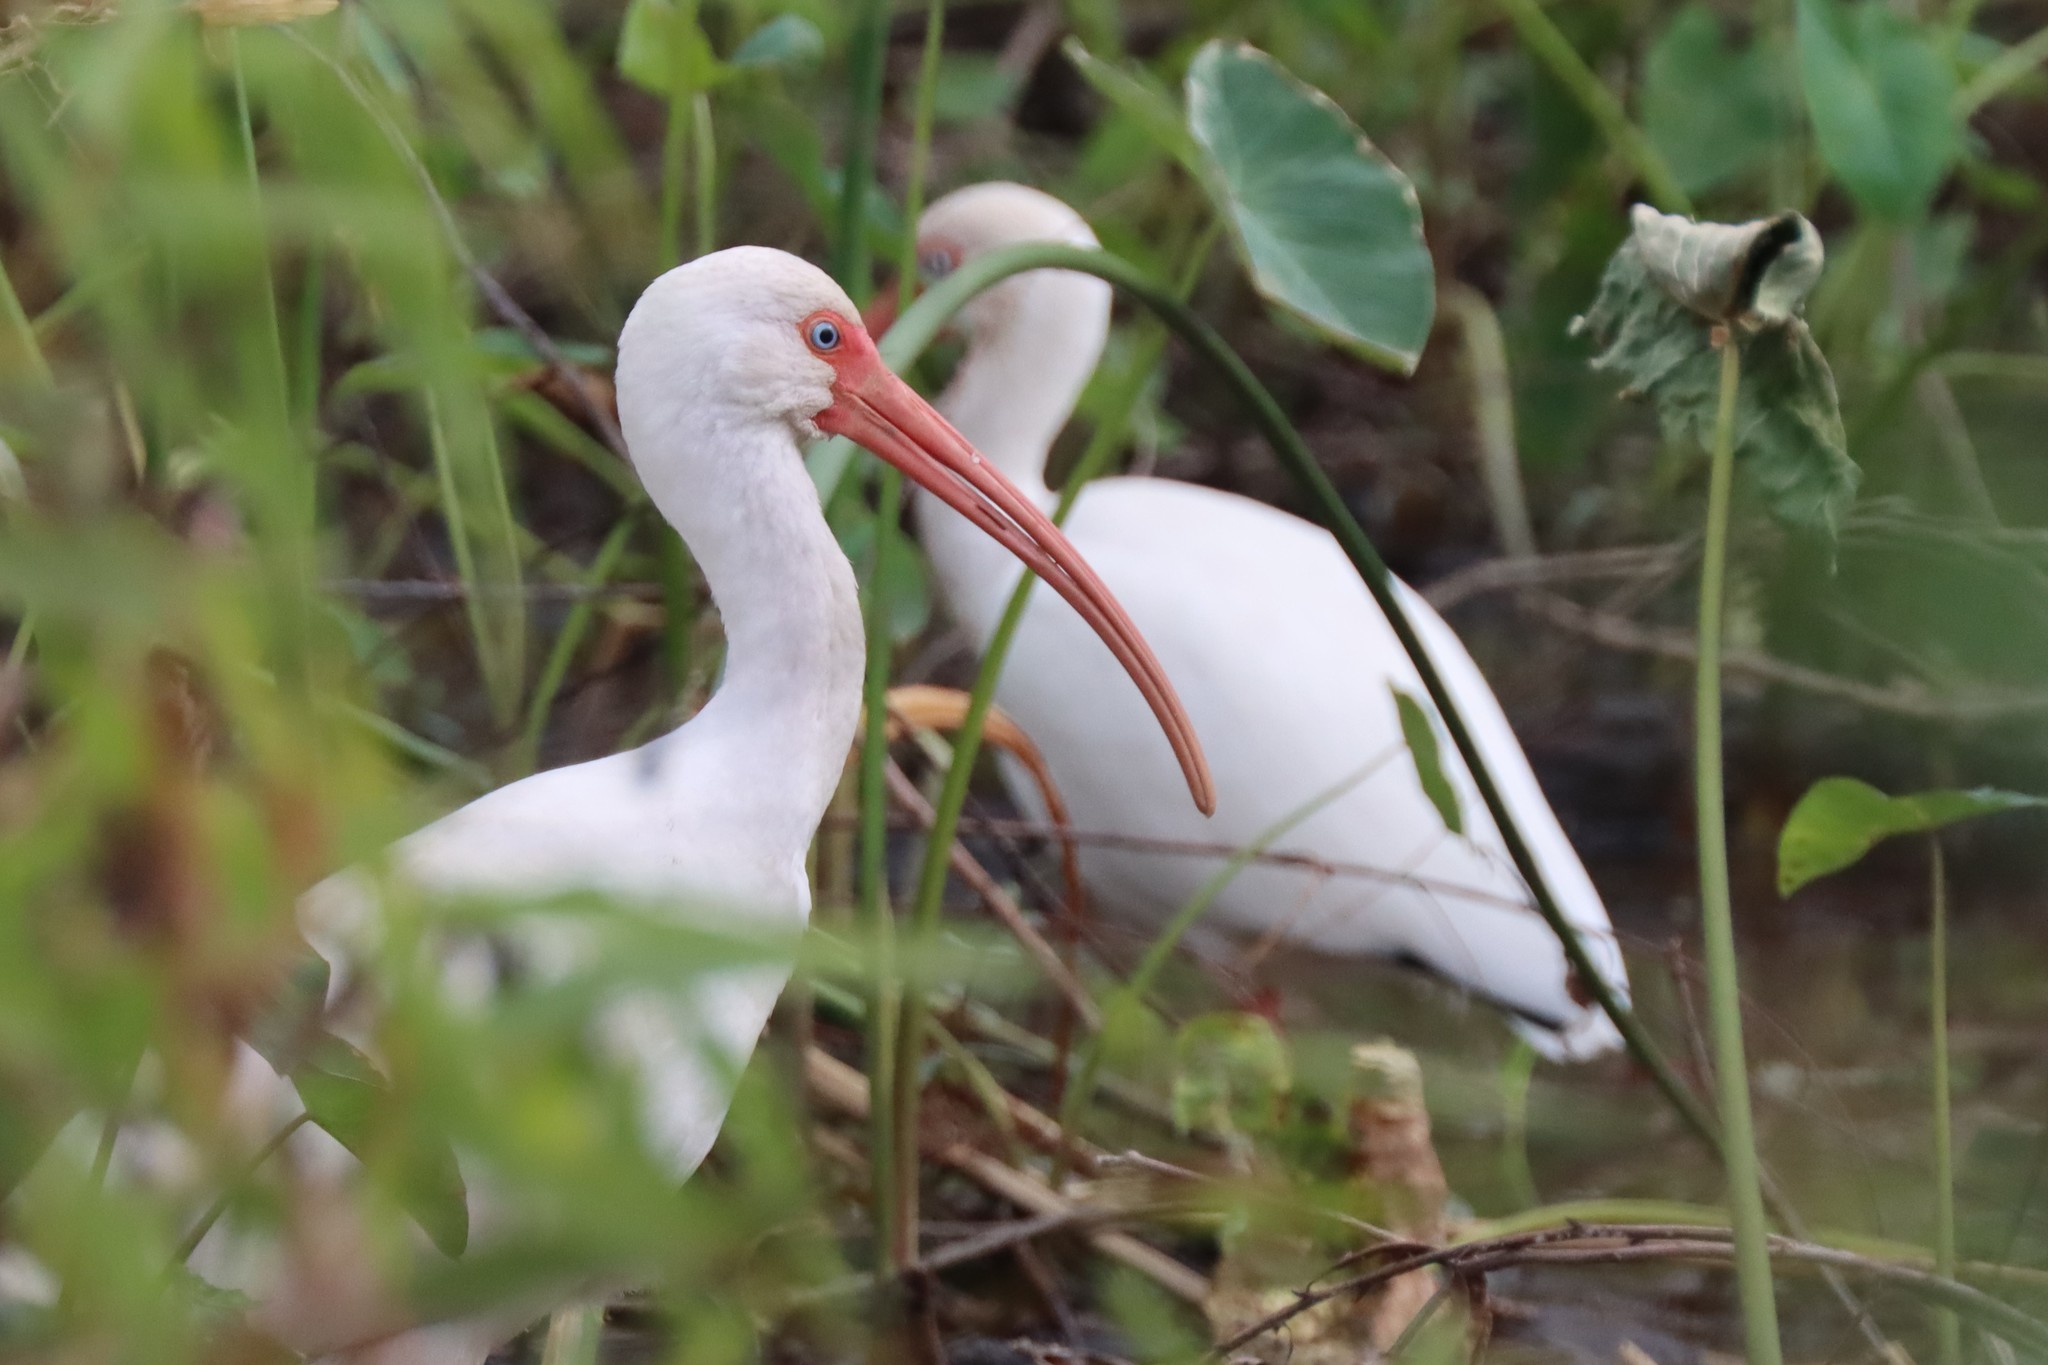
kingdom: Animalia
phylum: Chordata
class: Aves
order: Pelecaniformes
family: Threskiornithidae
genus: Eudocimus
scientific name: Eudocimus albus
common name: White ibis
